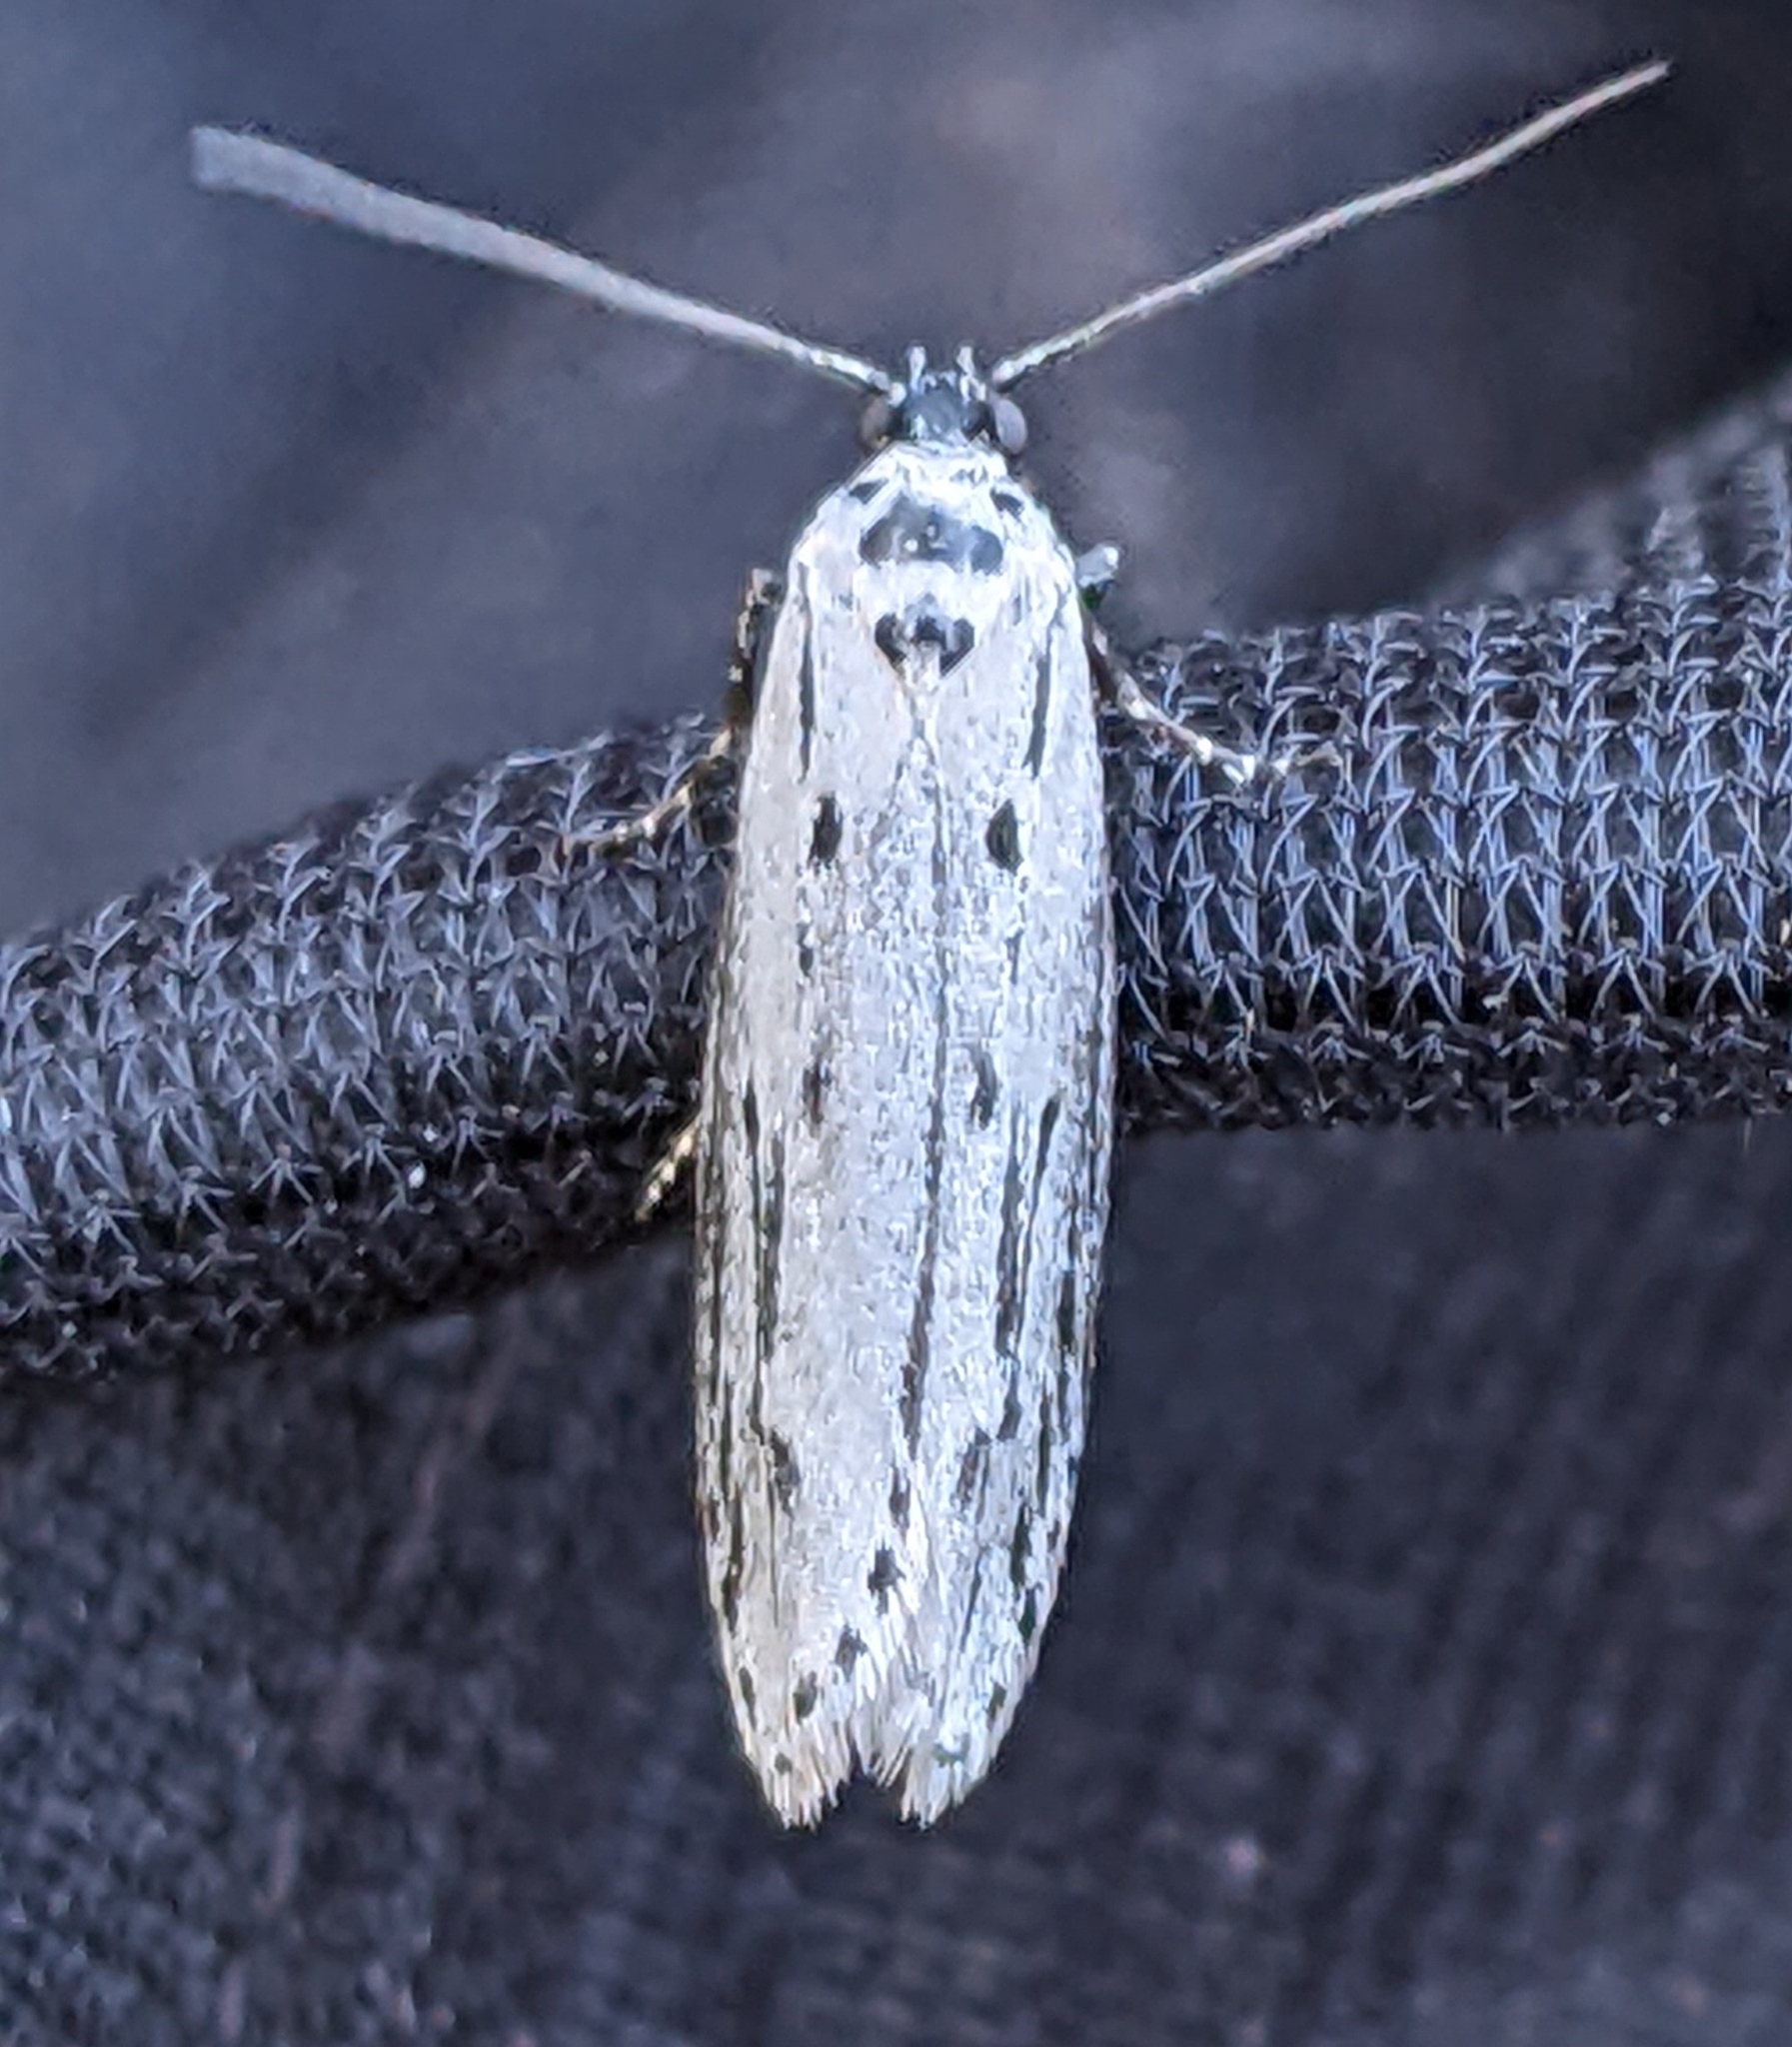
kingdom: Animalia
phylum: Arthropoda
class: Insecta
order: Lepidoptera
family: Ethmiidae
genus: Ethmia
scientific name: Ethmia monticola
